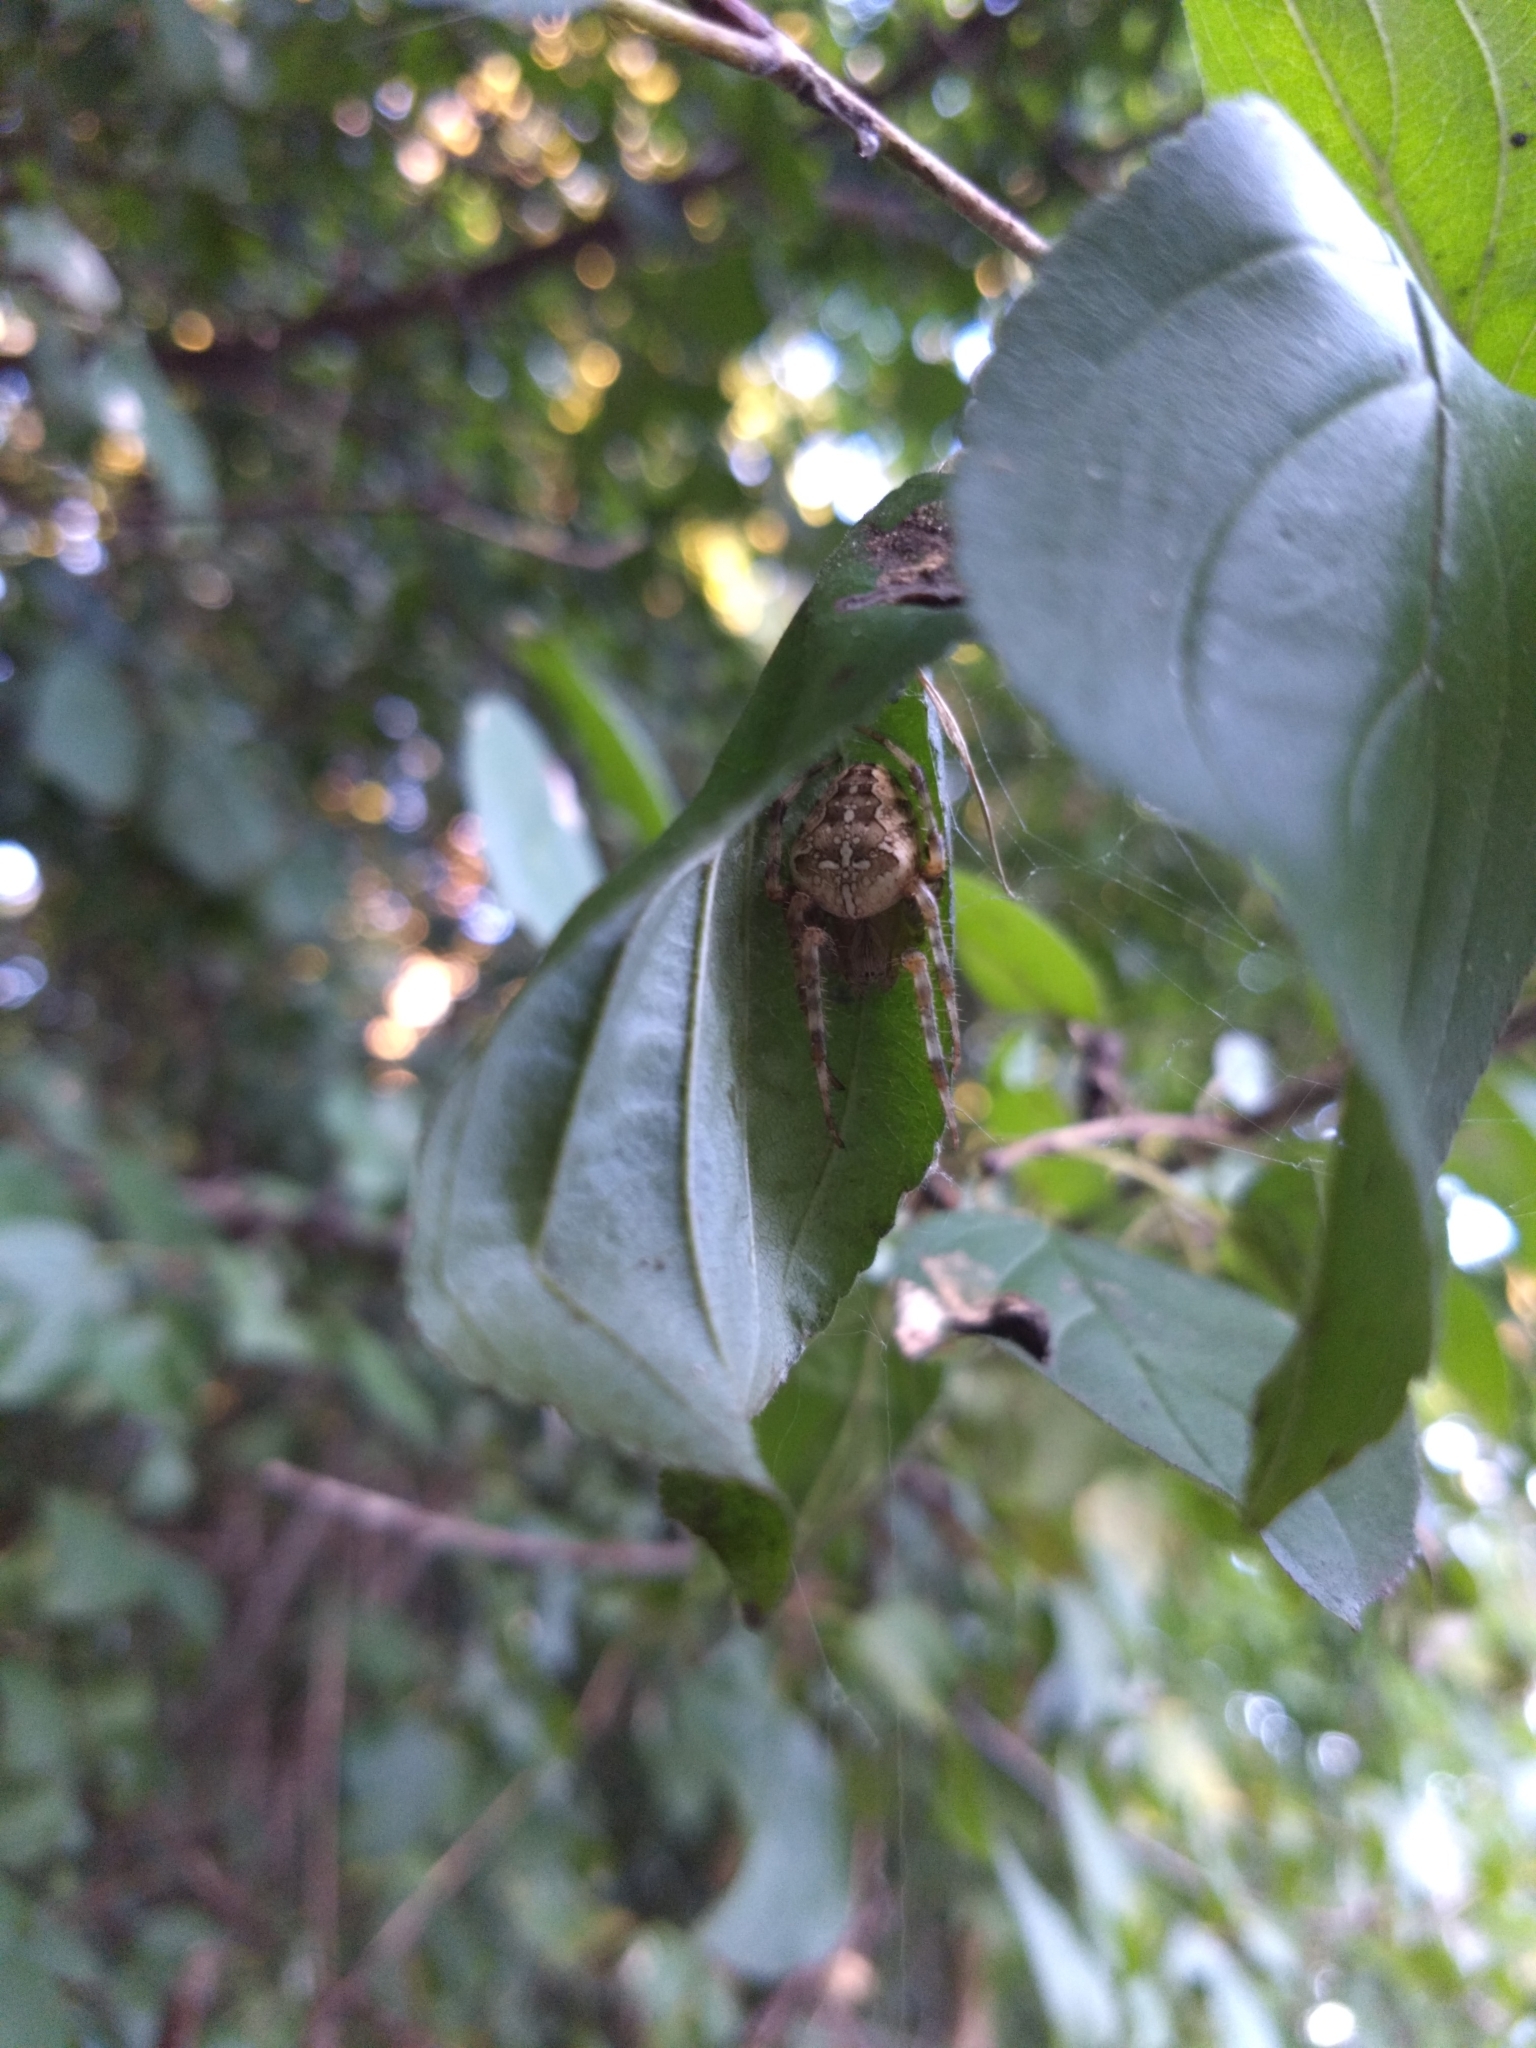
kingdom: Animalia
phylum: Arthropoda
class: Arachnida
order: Araneae
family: Araneidae
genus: Araneus
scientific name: Araneus diadematus
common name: Cross orbweaver
